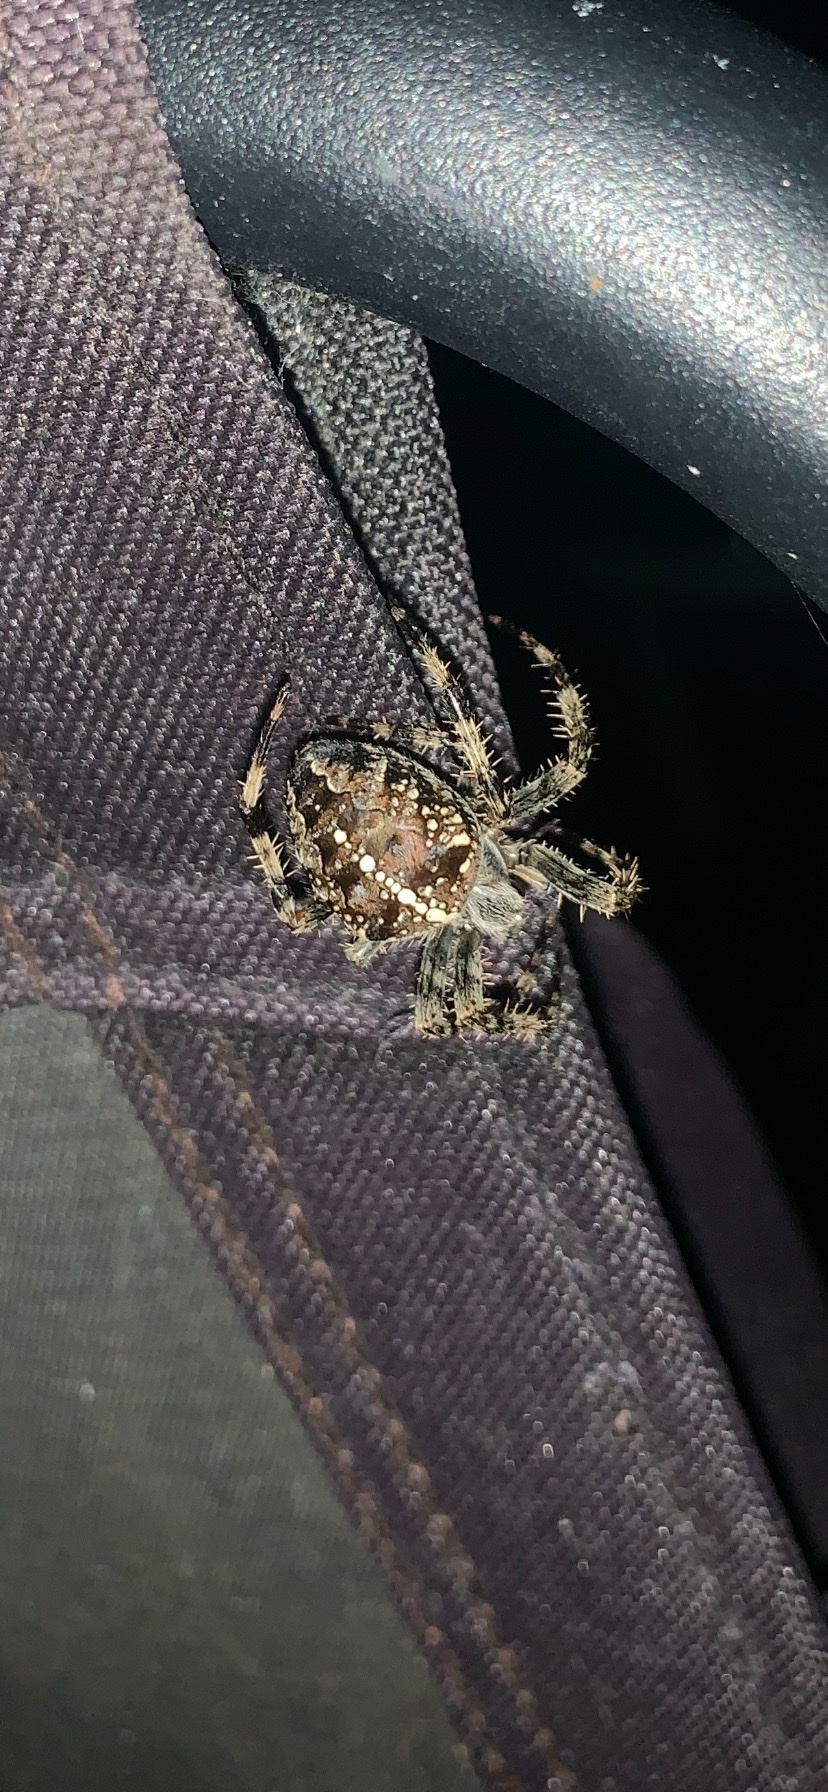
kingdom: Animalia
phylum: Arthropoda
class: Arachnida
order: Araneae
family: Araneidae
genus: Araneus
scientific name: Araneus diadematus
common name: Cross orbweaver
